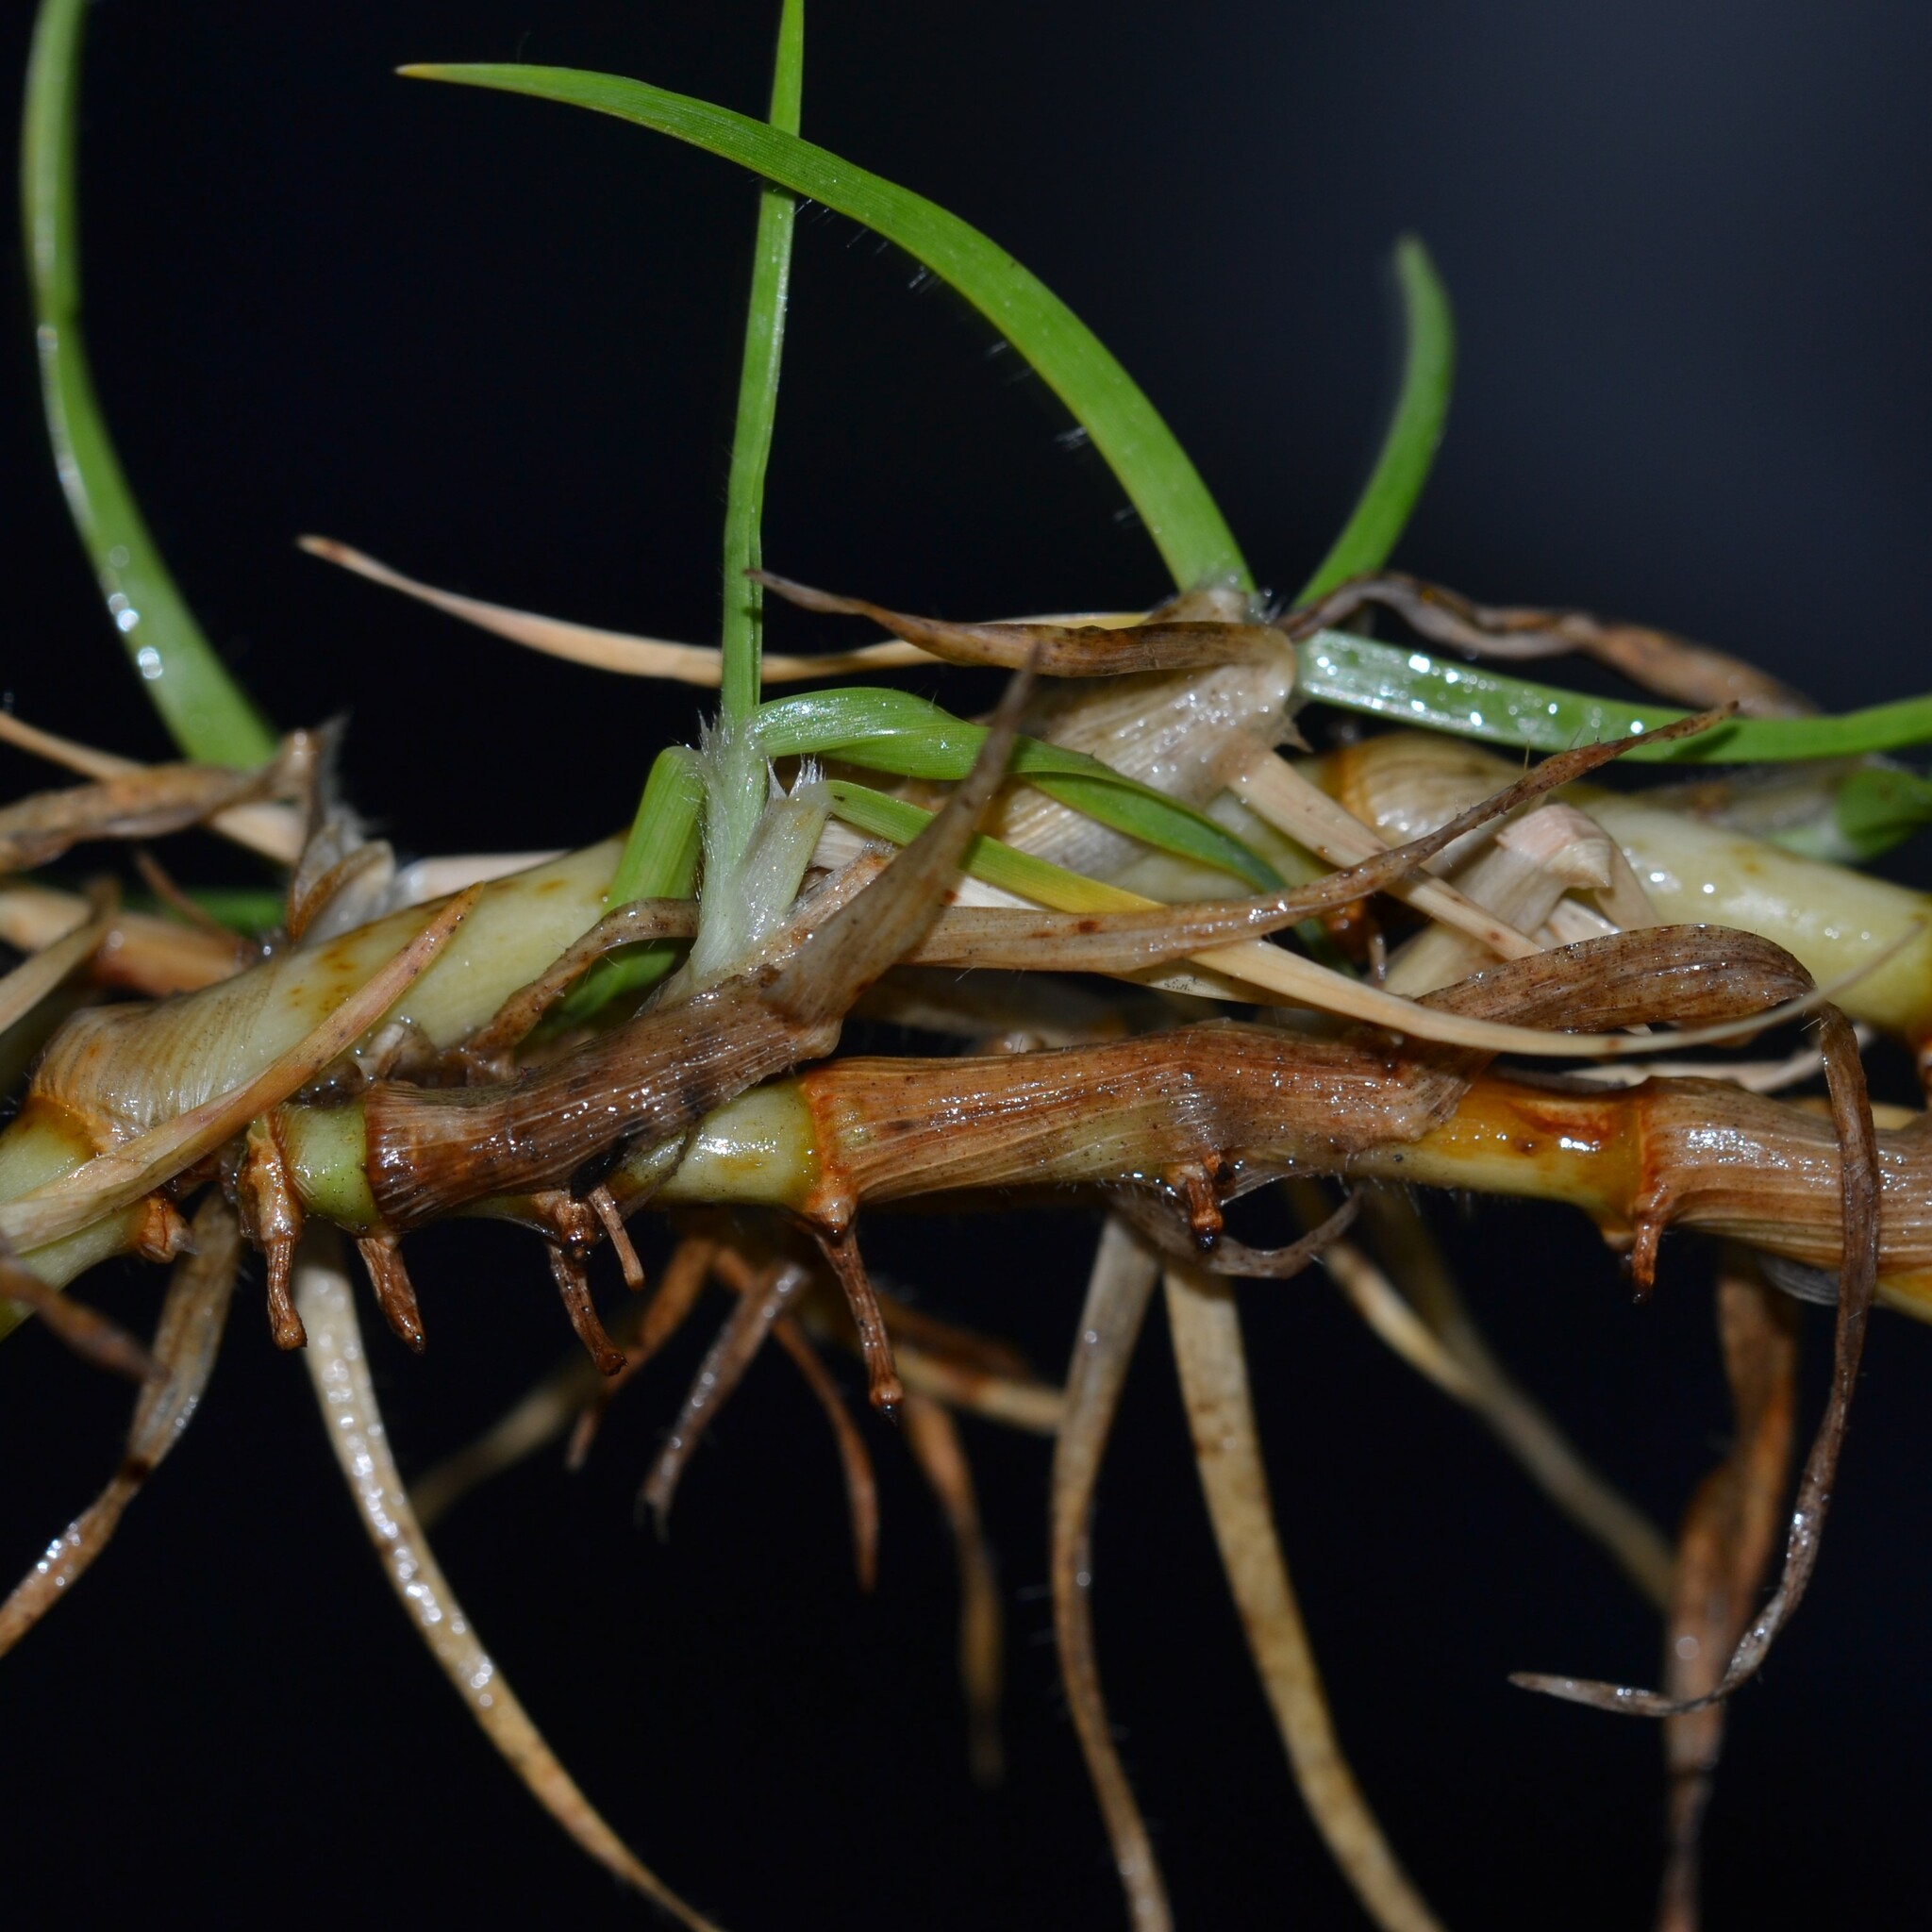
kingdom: Plantae
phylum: Tracheophyta
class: Liliopsida
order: Poales
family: Poaceae
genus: Cenchrus
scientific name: Cenchrus clandestinus
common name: Kikuyugrass
